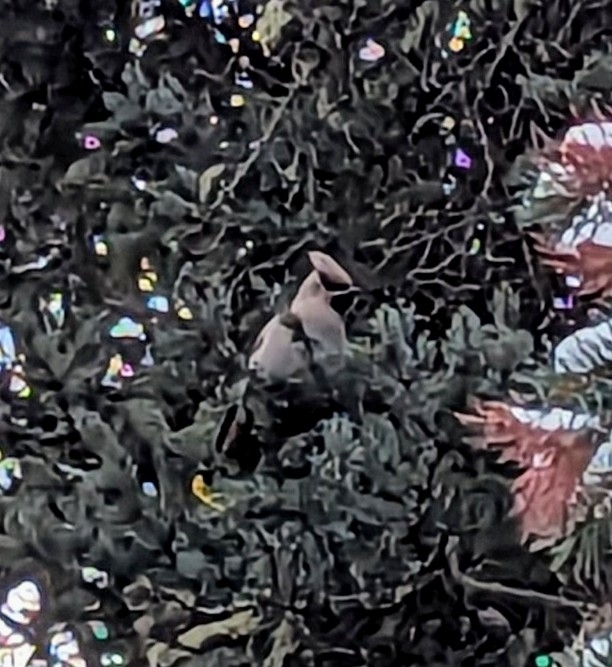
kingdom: Animalia
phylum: Chordata
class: Aves
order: Passeriformes
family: Bombycillidae
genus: Bombycilla
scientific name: Bombycilla garrulus
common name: Bohemian waxwing
